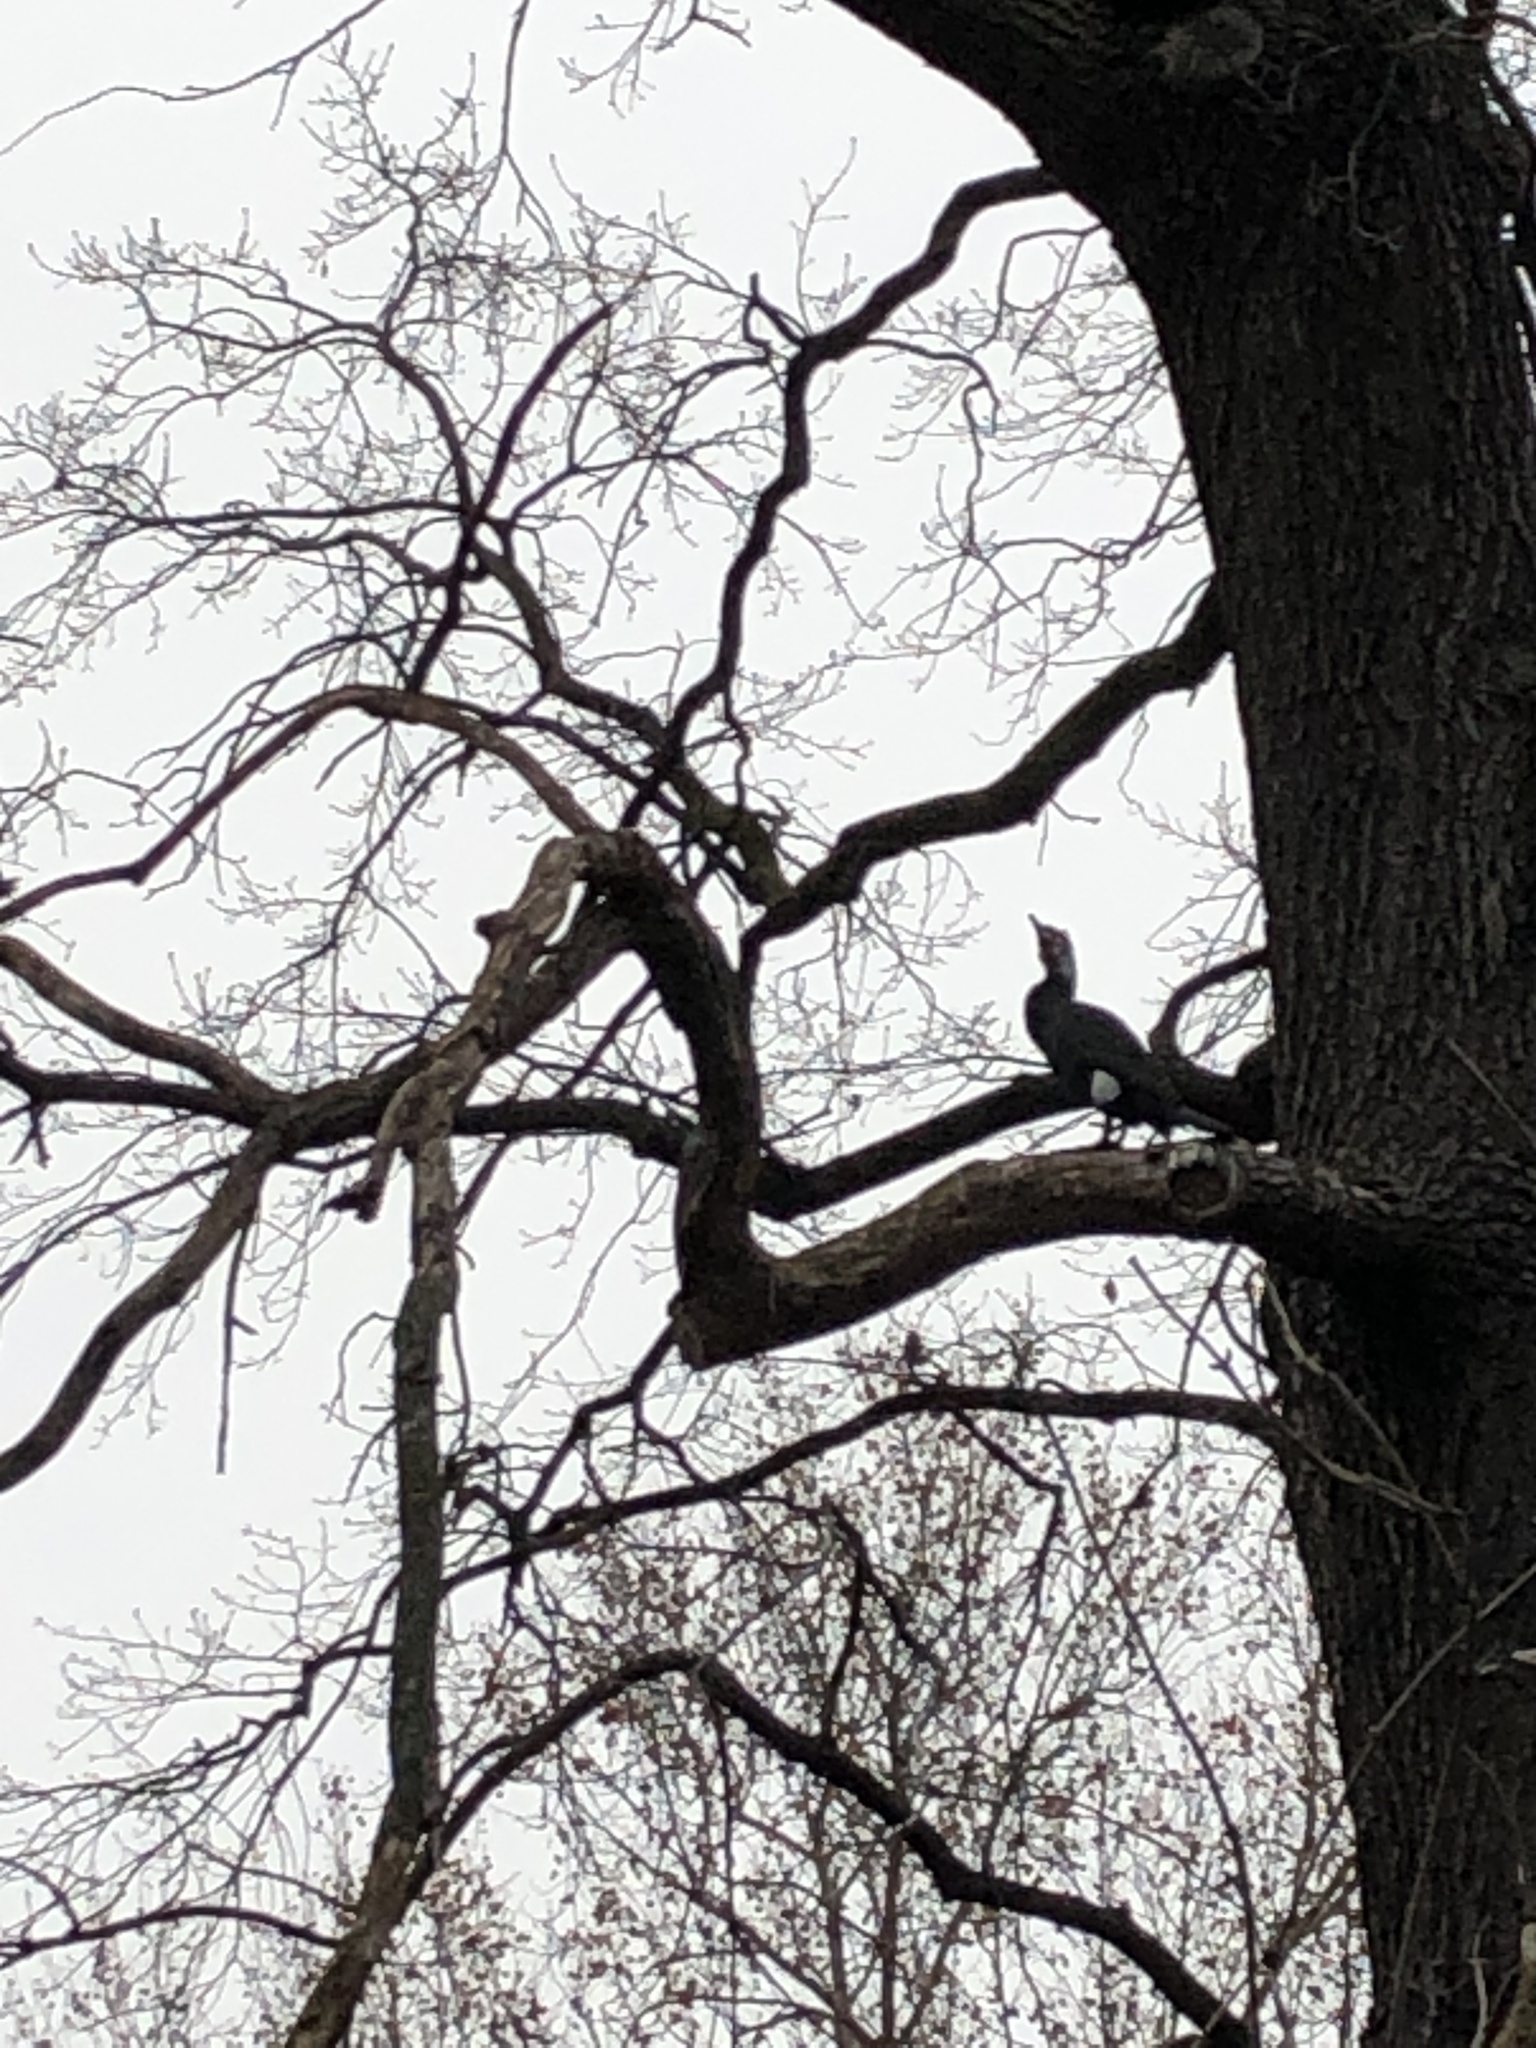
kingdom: Animalia
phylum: Chordata
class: Aves
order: Suliformes
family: Phalacrocoracidae
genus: Phalacrocorax
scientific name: Phalacrocorax carbo
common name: Great cormorant
